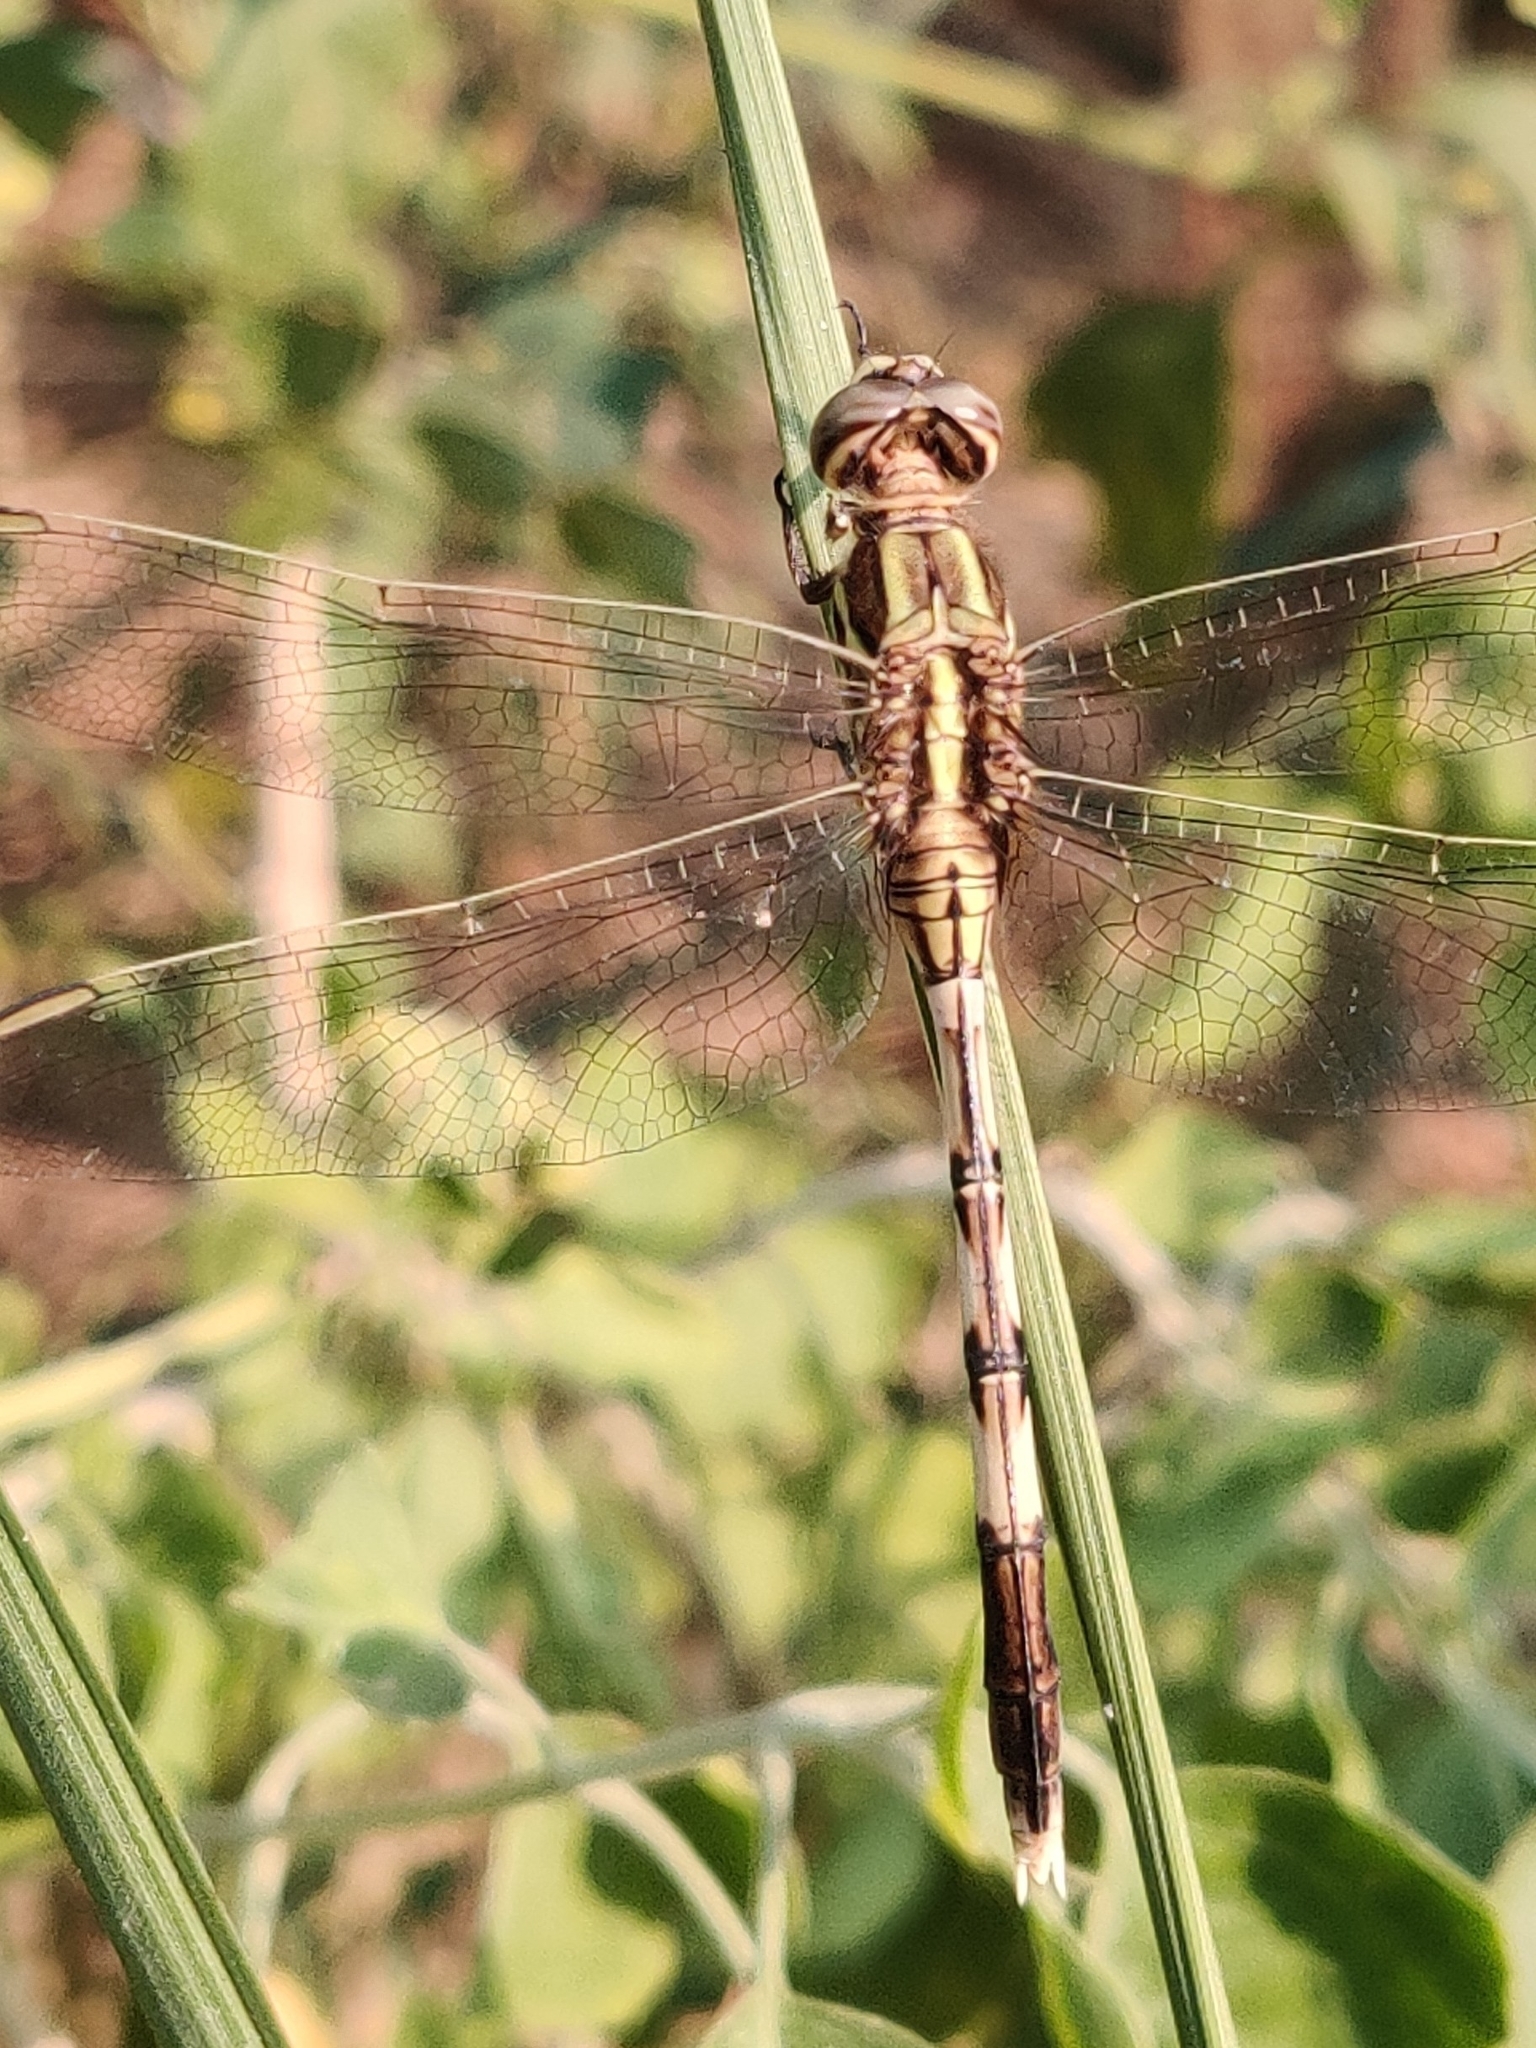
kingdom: Animalia
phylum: Arthropoda
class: Insecta
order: Odonata
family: Libellulidae
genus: Orthetrum
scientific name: Orthetrum sabina
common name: Slender skimmer
